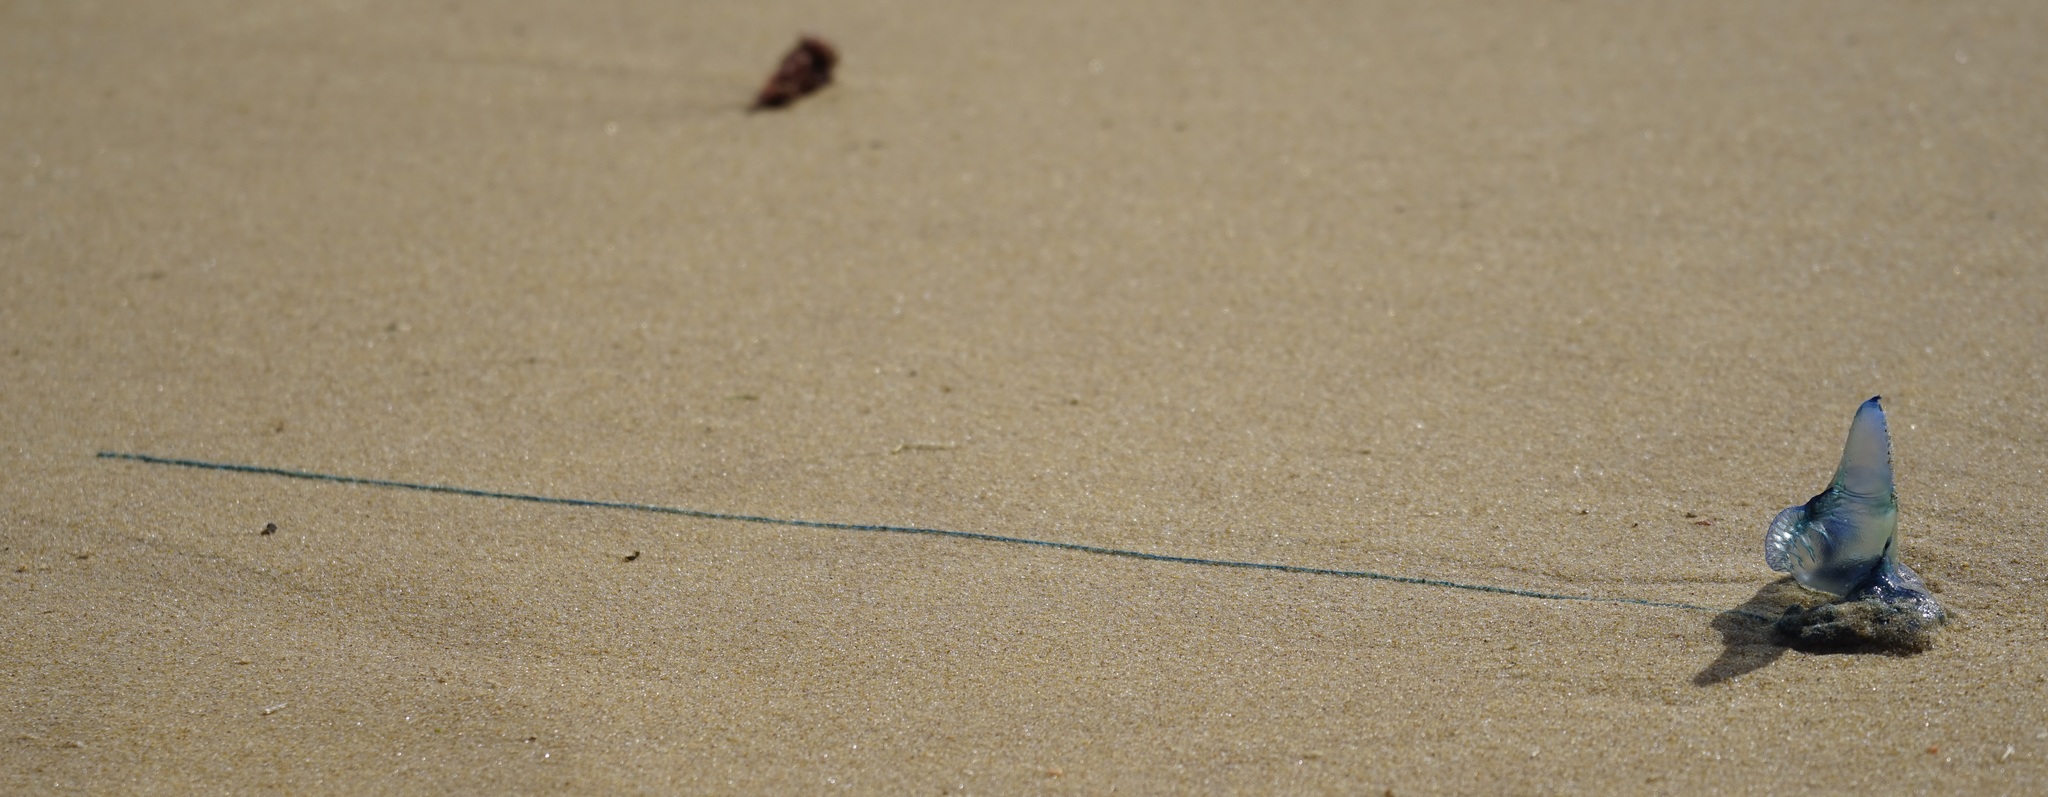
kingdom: Animalia
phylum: Cnidaria
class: Hydrozoa
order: Siphonophorae
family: Physaliidae
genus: Physalia
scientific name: Physalia physalis
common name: Portuguese man-of-war
